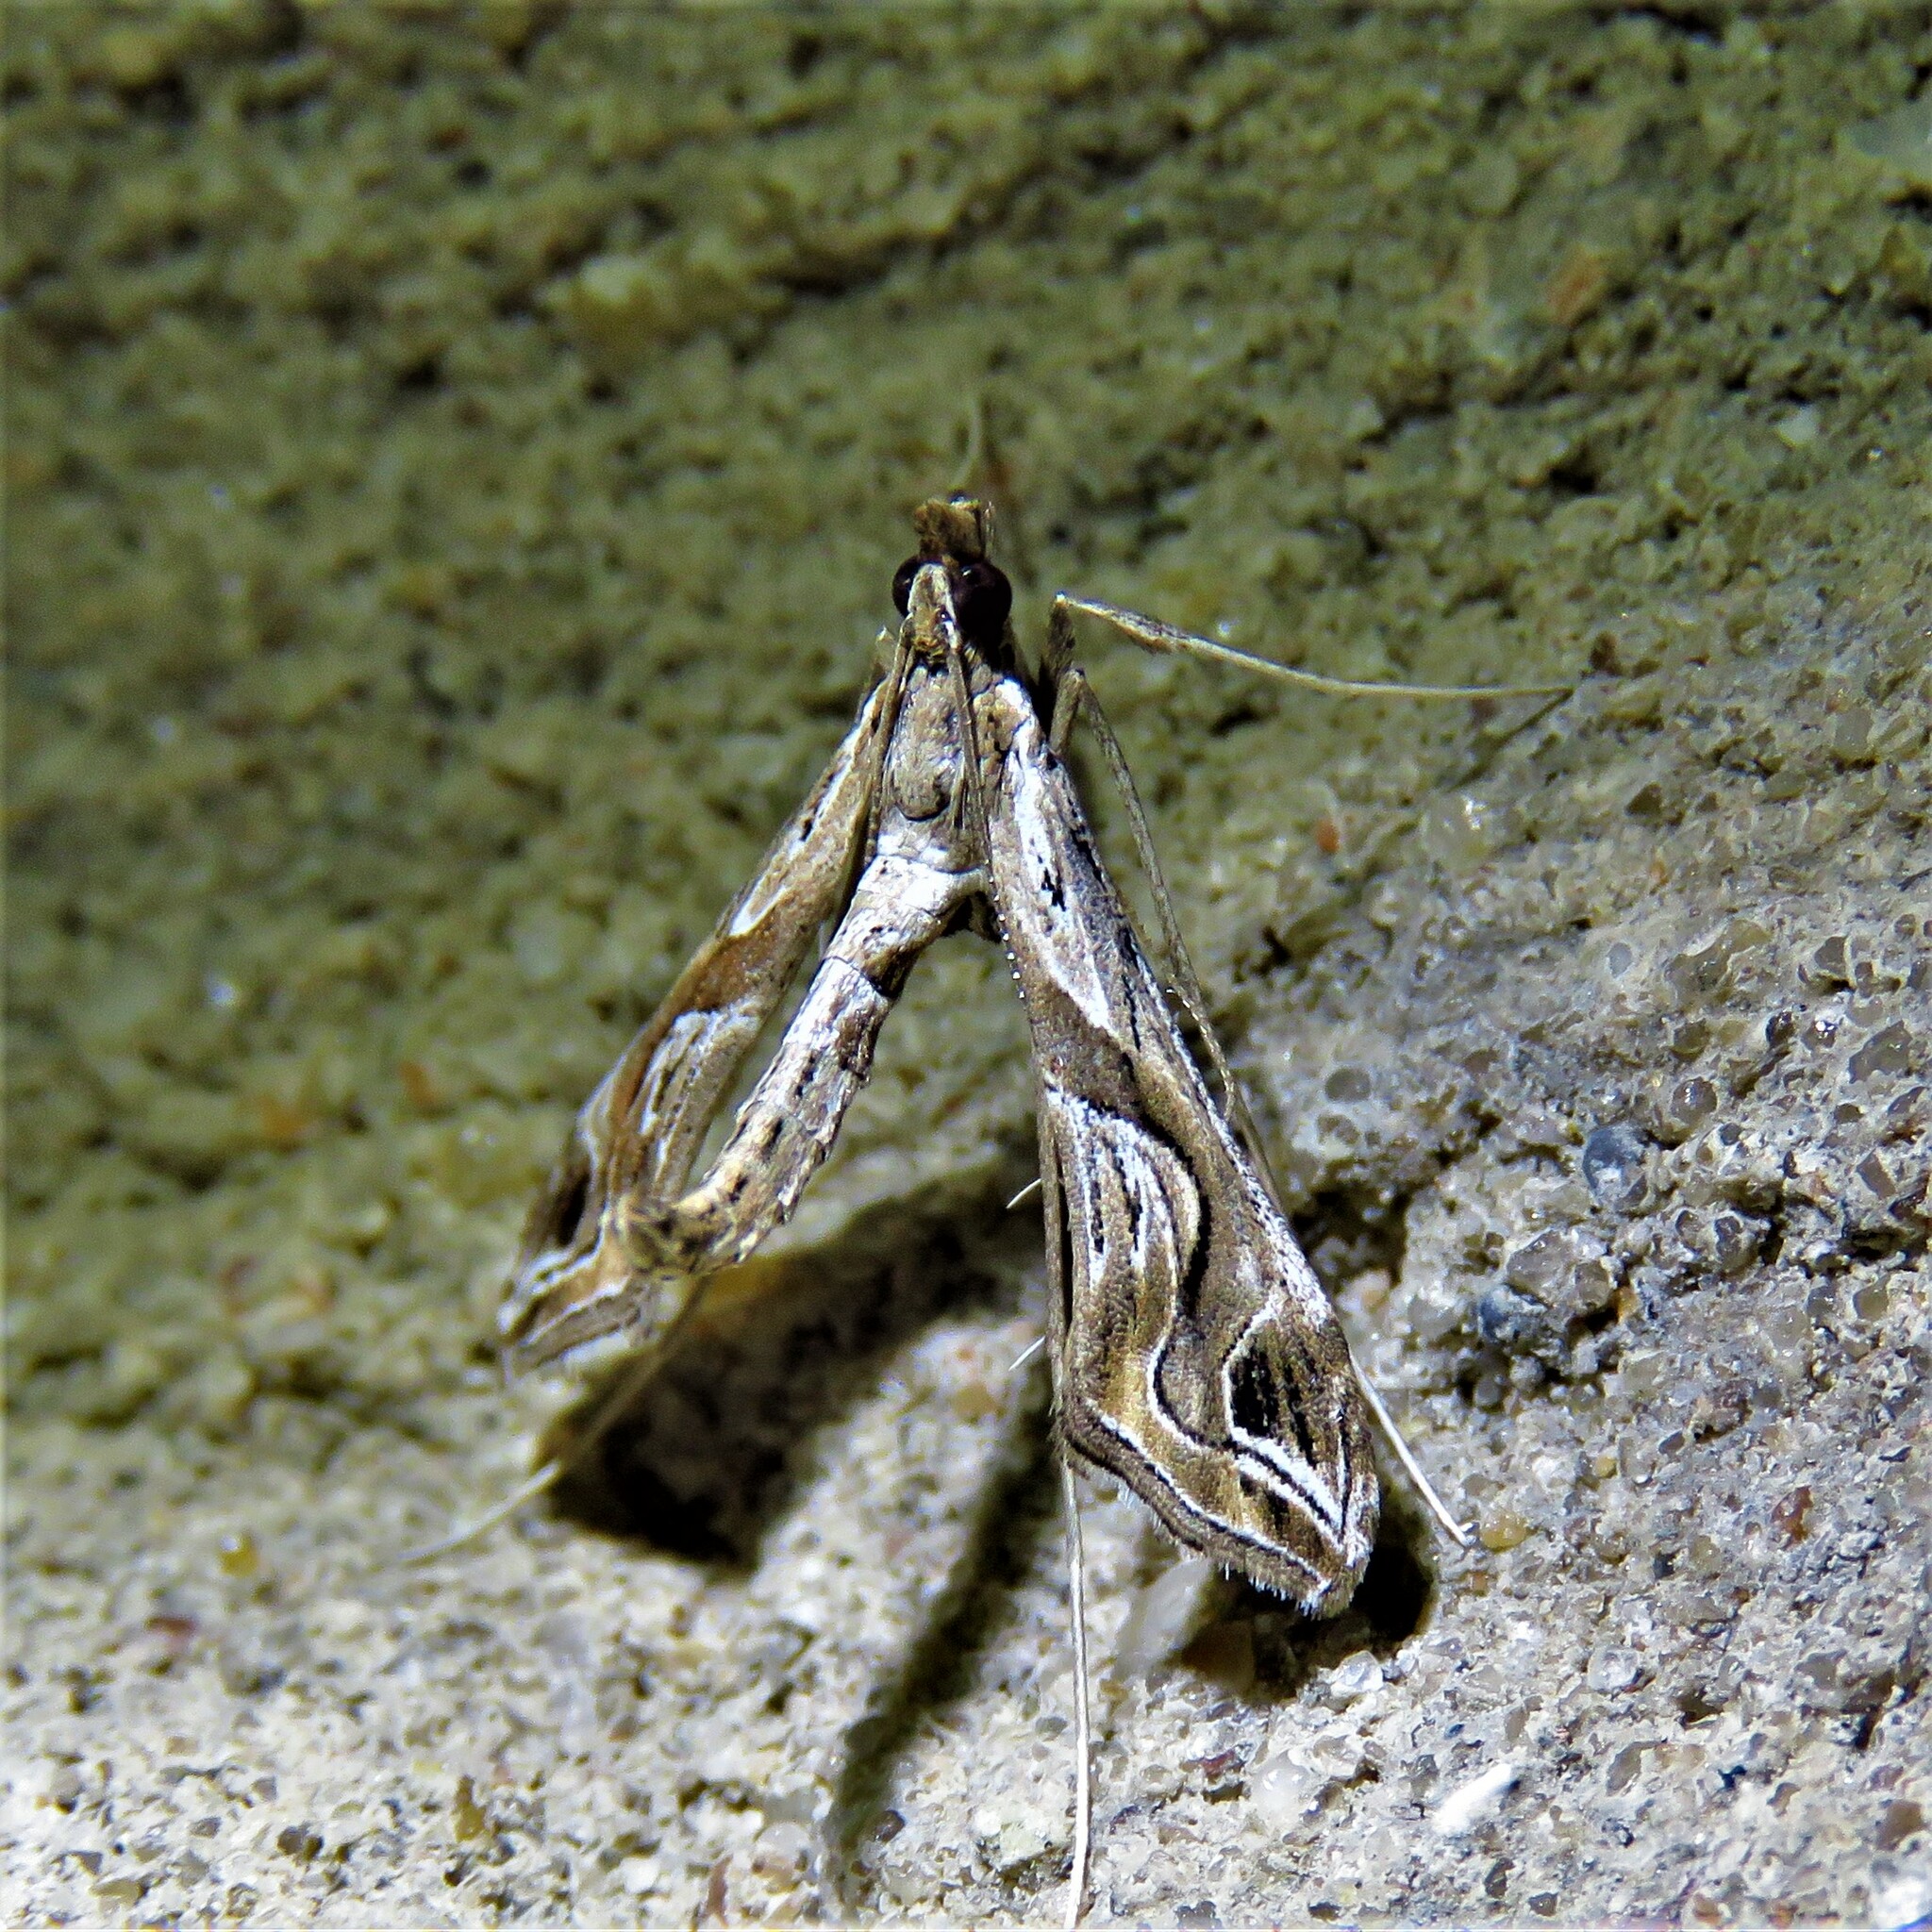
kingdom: Animalia
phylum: Arthropoda
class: Insecta
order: Lepidoptera
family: Crambidae
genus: Lineodes
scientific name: Lineodes integra
